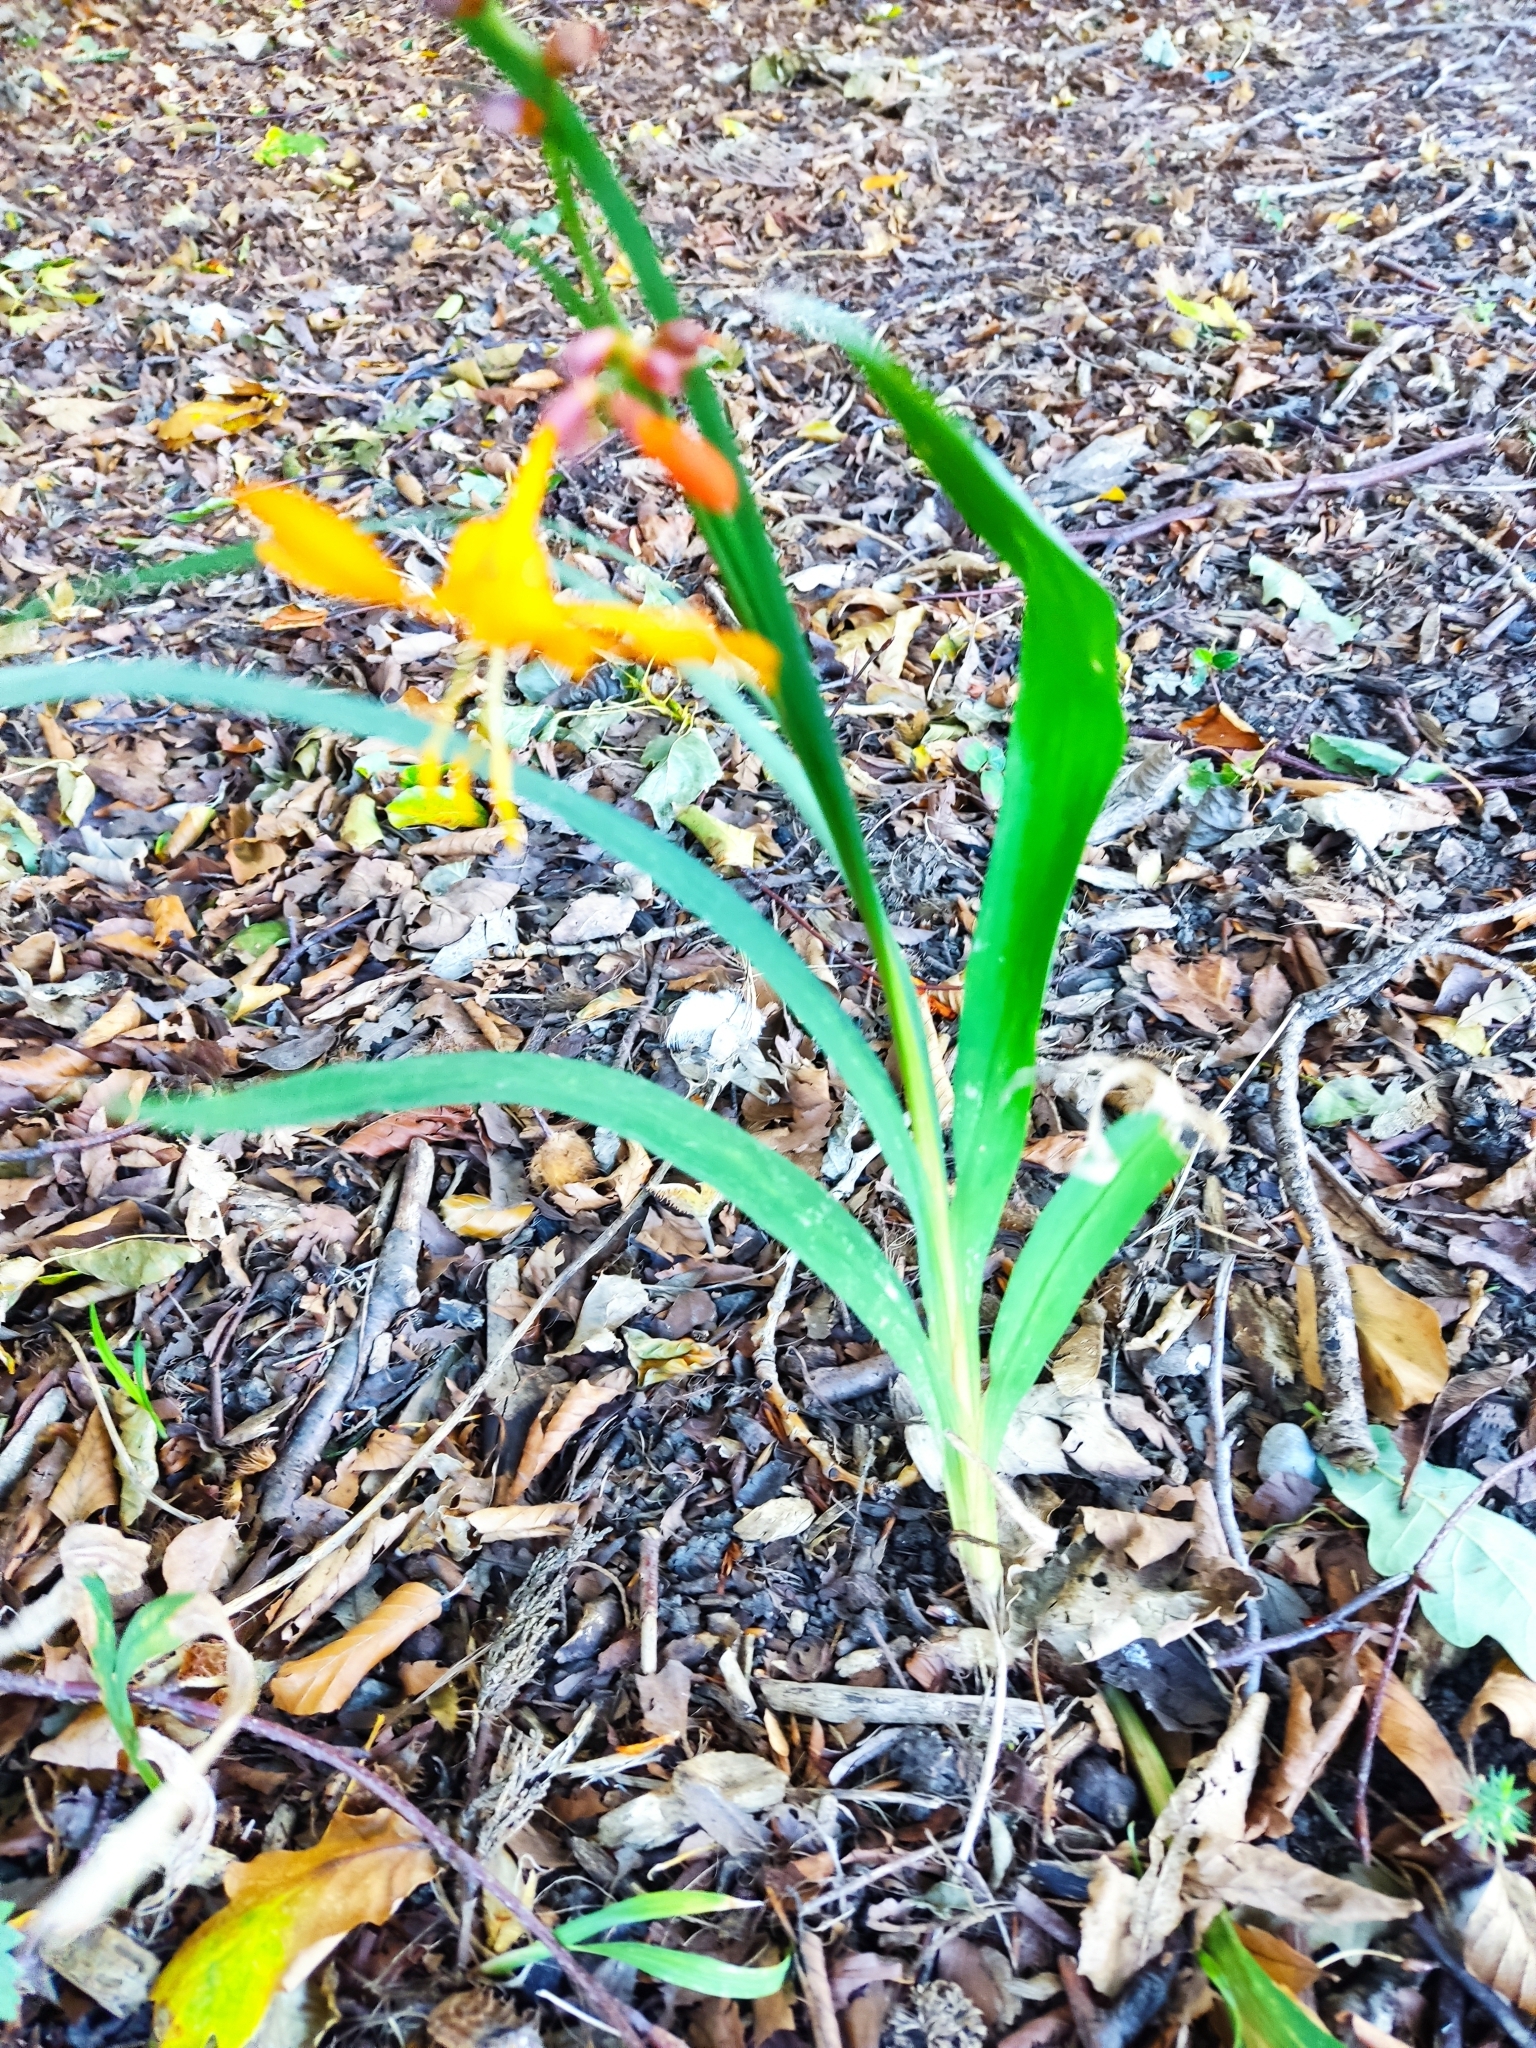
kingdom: Plantae
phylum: Tracheophyta
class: Liliopsida
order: Asparagales
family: Iridaceae
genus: Iris
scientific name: Iris domestica
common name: Belamcanda
